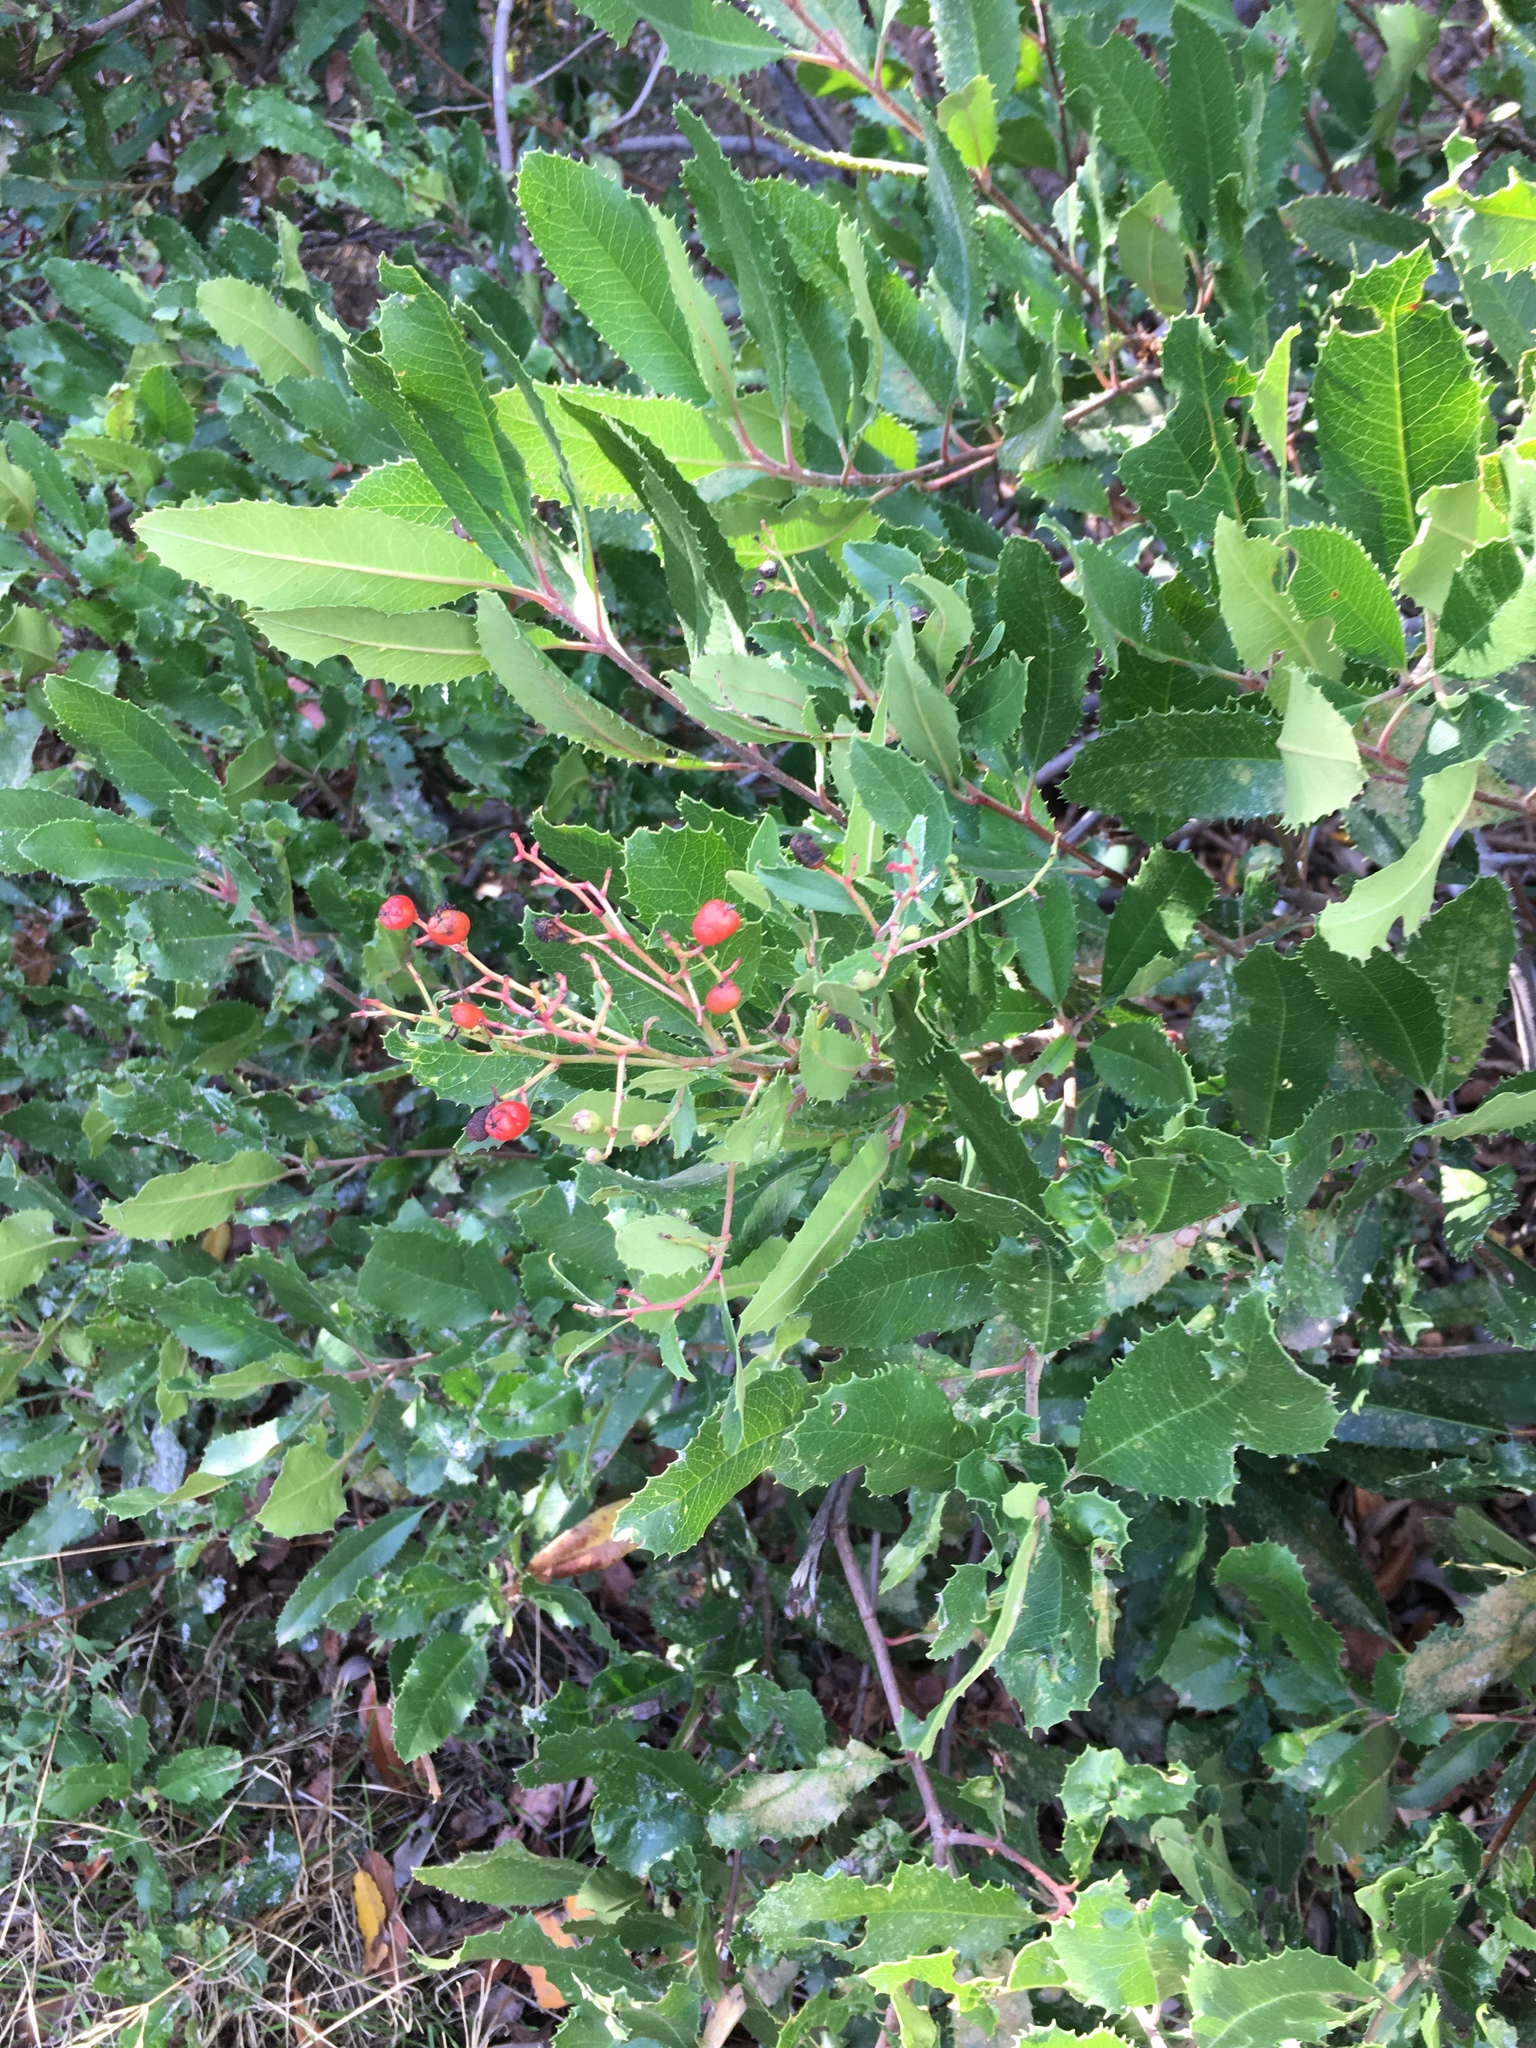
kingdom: Plantae
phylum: Tracheophyta
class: Magnoliopsida
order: Rosales
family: Rosaceae
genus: Heteromeles
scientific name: Heteromeles arbutifolia
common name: California-holly
